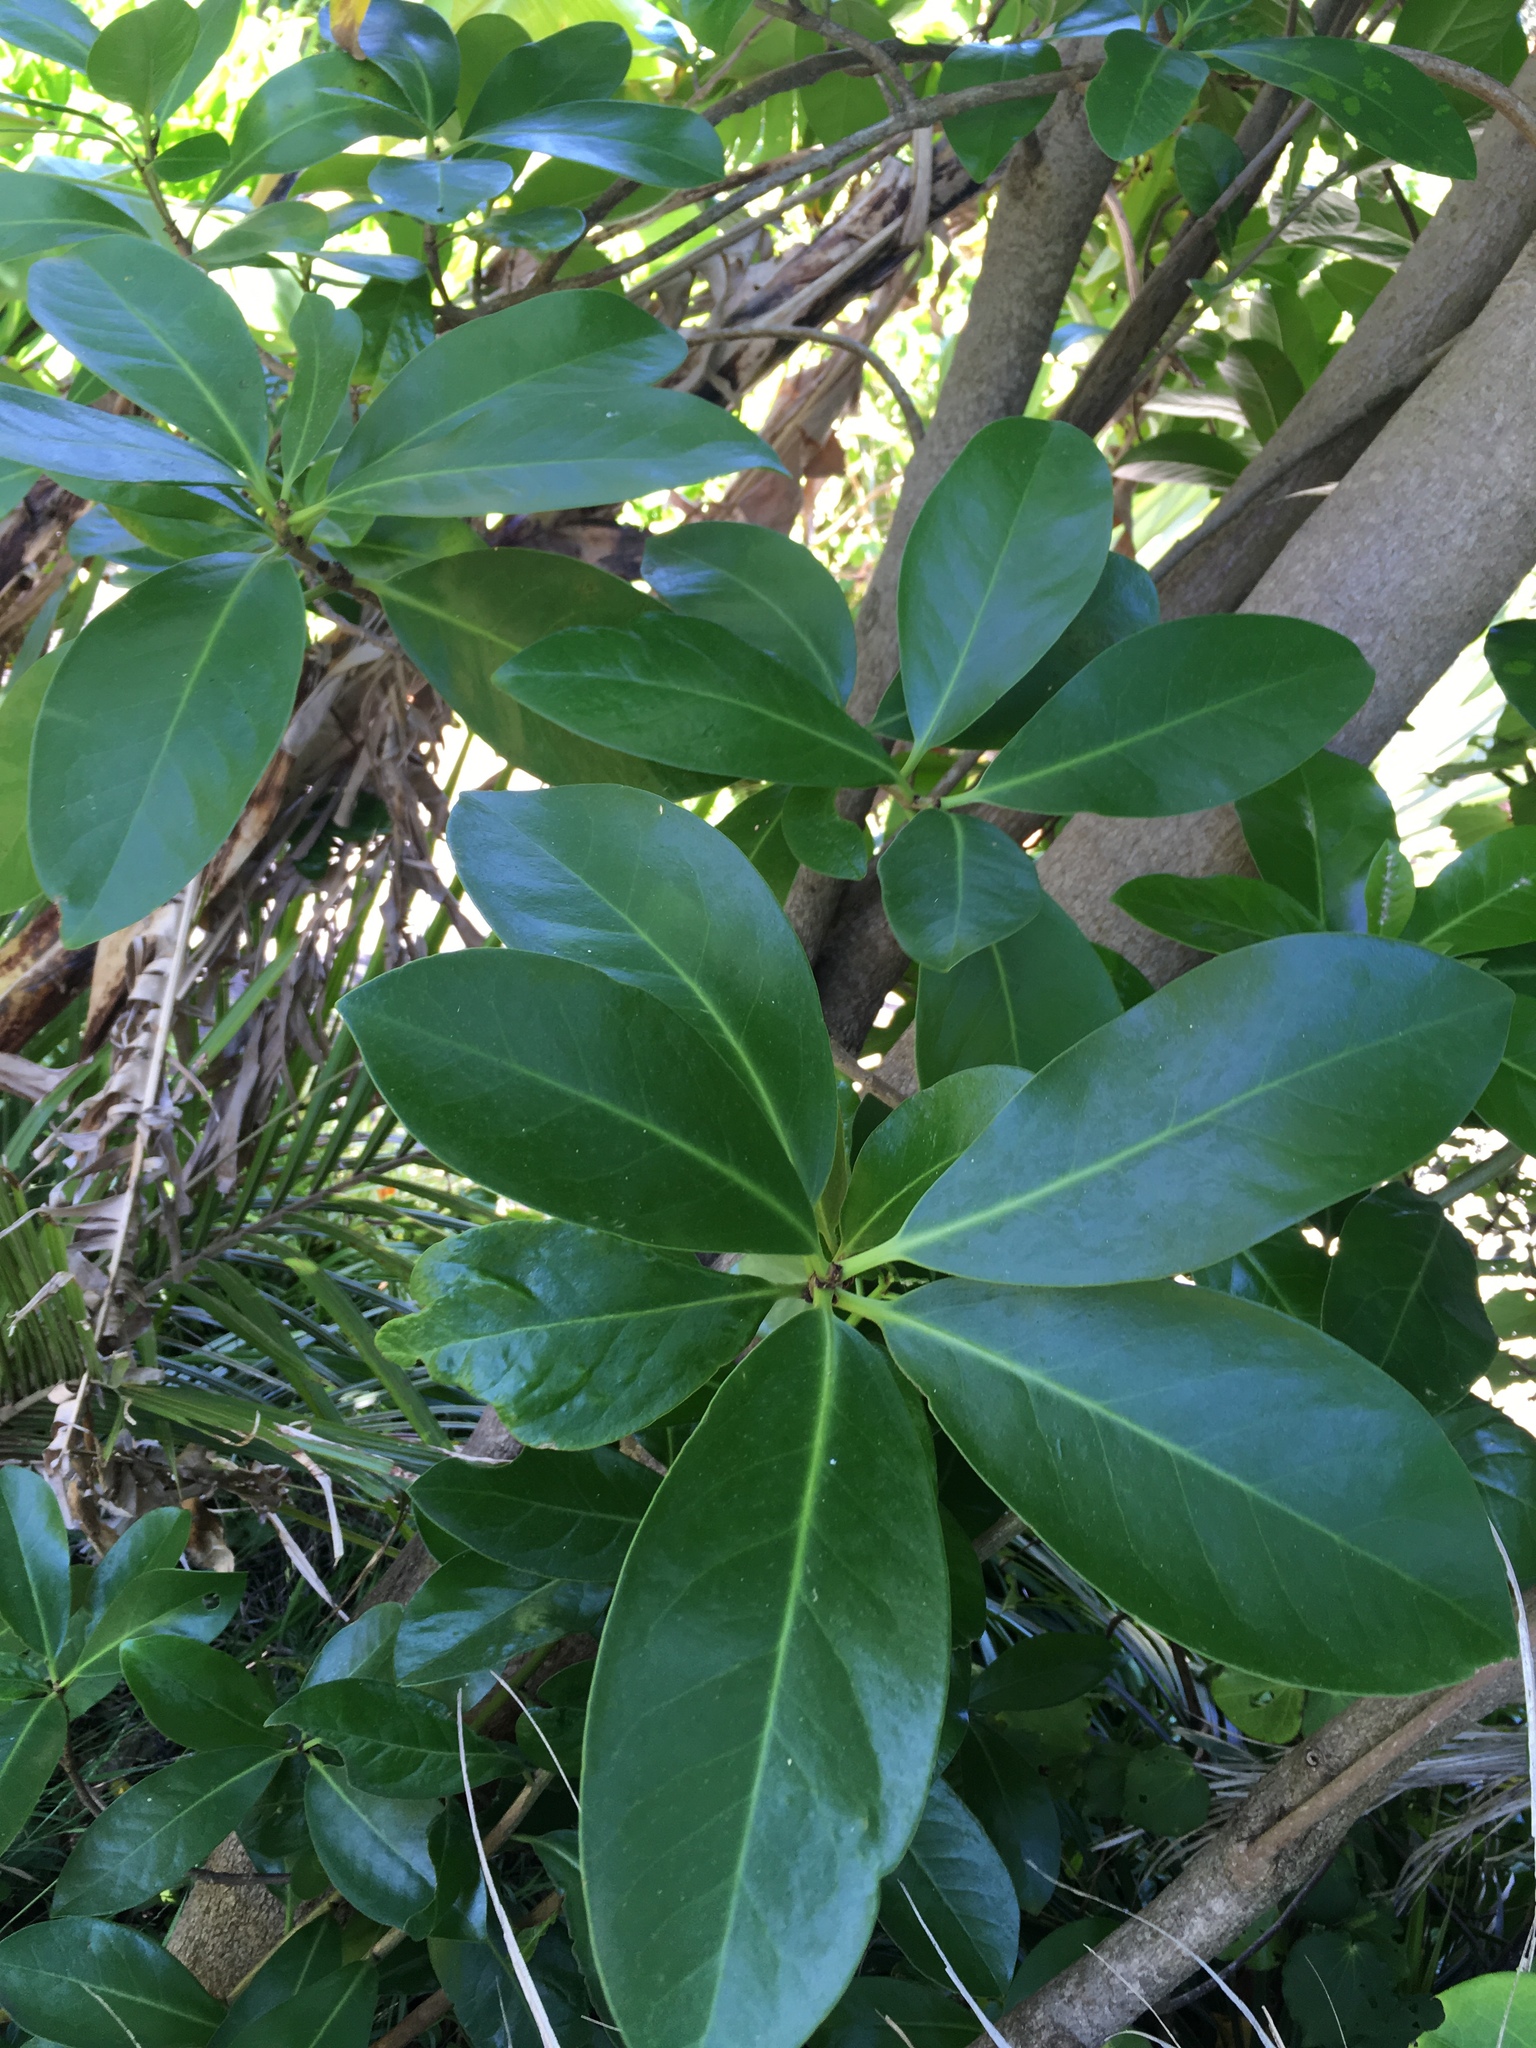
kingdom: Plantae
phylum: Tracheophyta
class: Magnoliopsida
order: Cucurbitales
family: Corynocarpaceae
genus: Corynocarpus
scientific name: Corynocarpus laevigatus
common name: New zealand laurel
